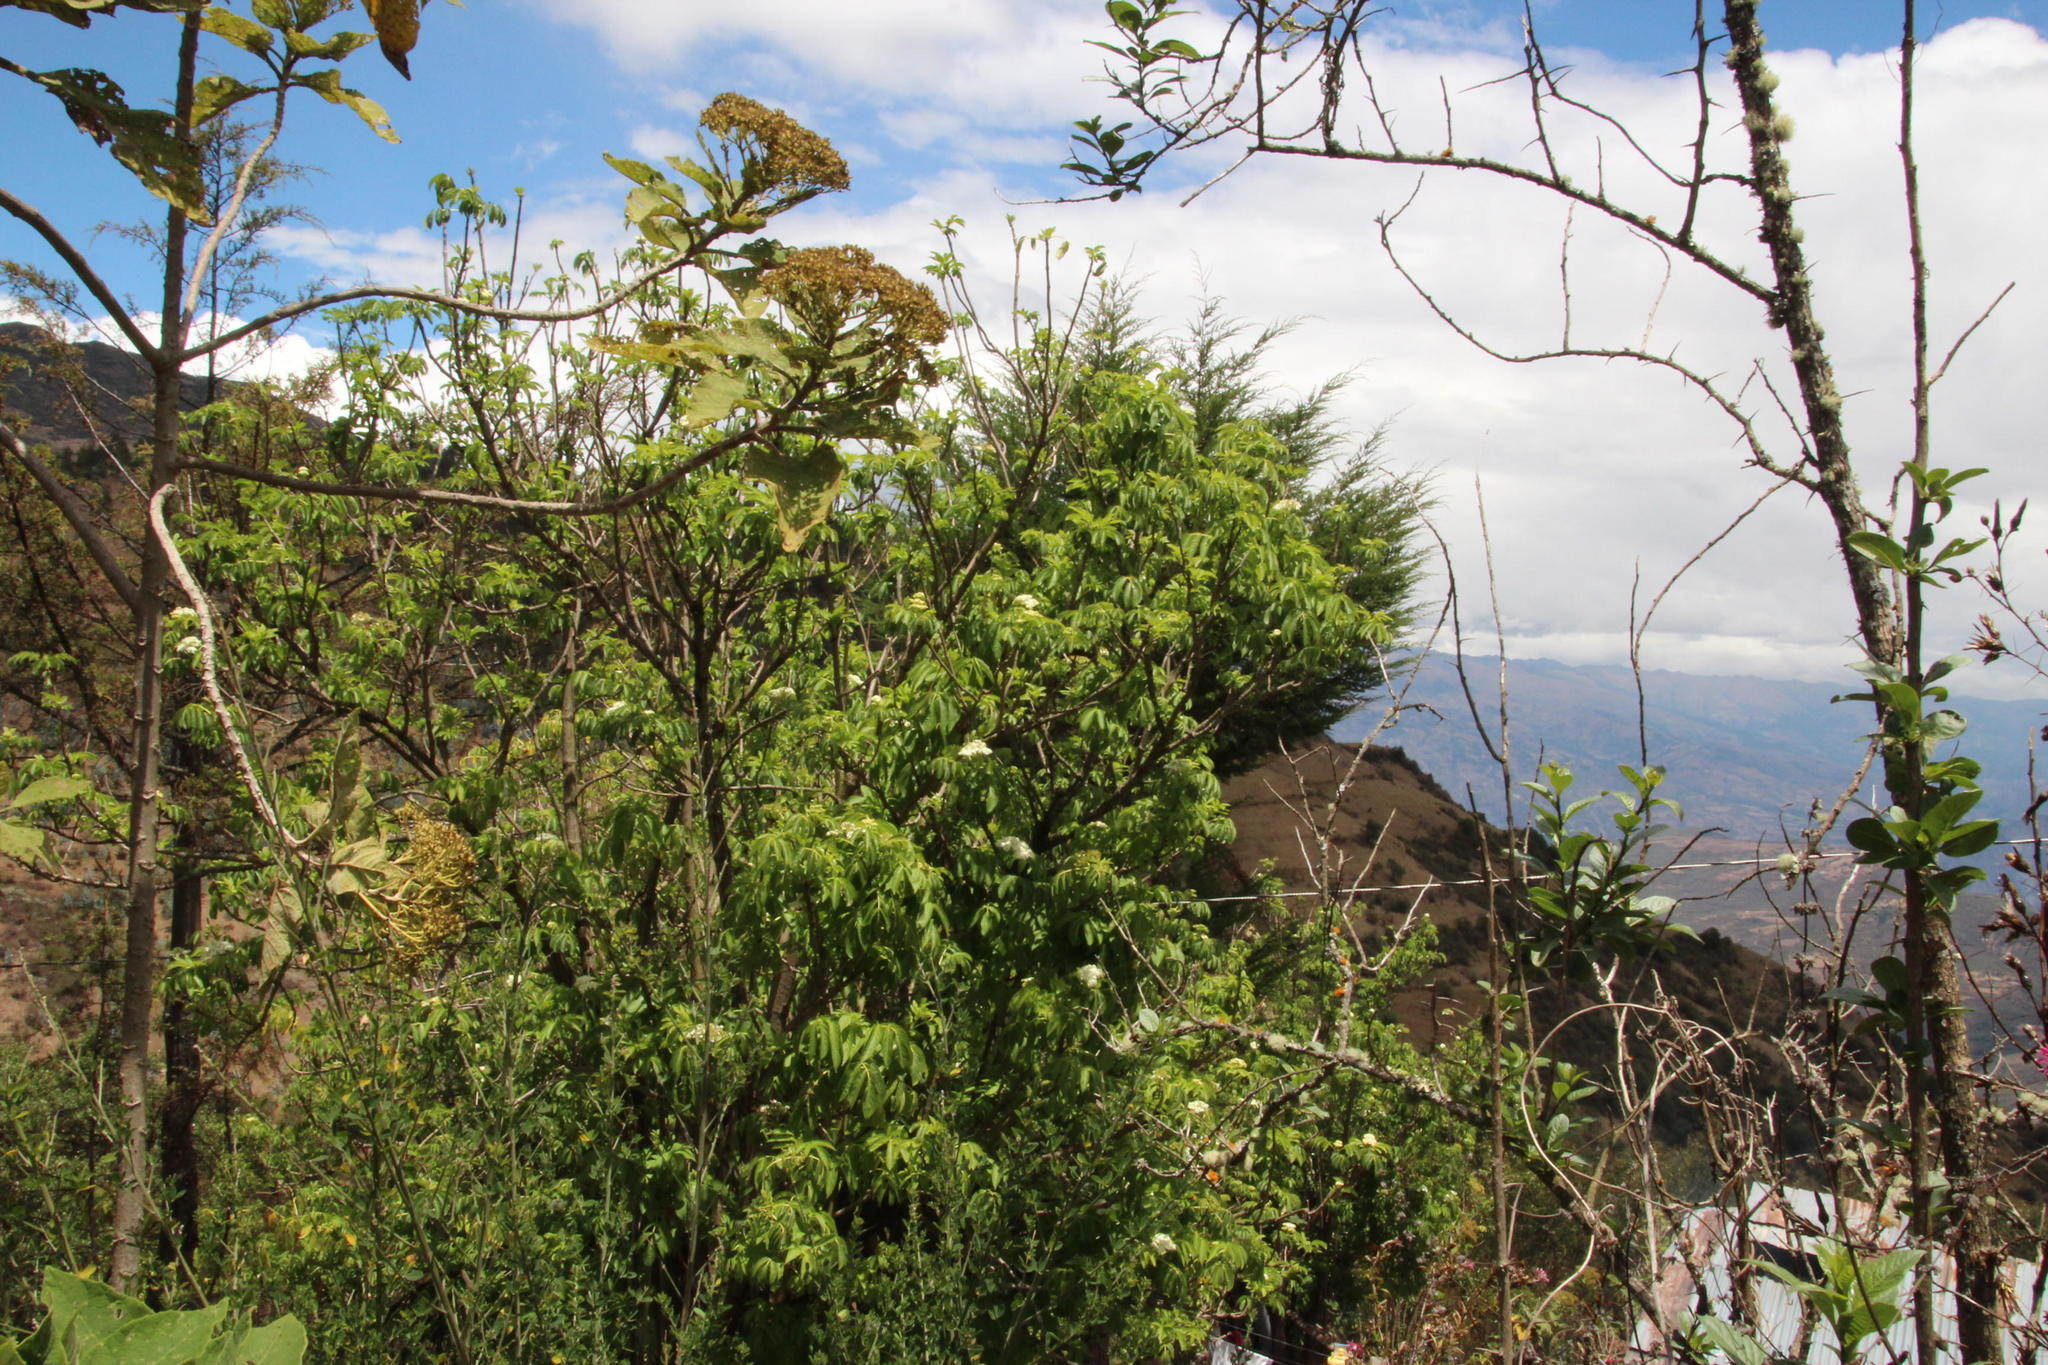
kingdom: Plantae
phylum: Tracheophyta
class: Magnoliopsida
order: Dipsacales
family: Viburnaceae
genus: Sambucus
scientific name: Sambucus peruviana
